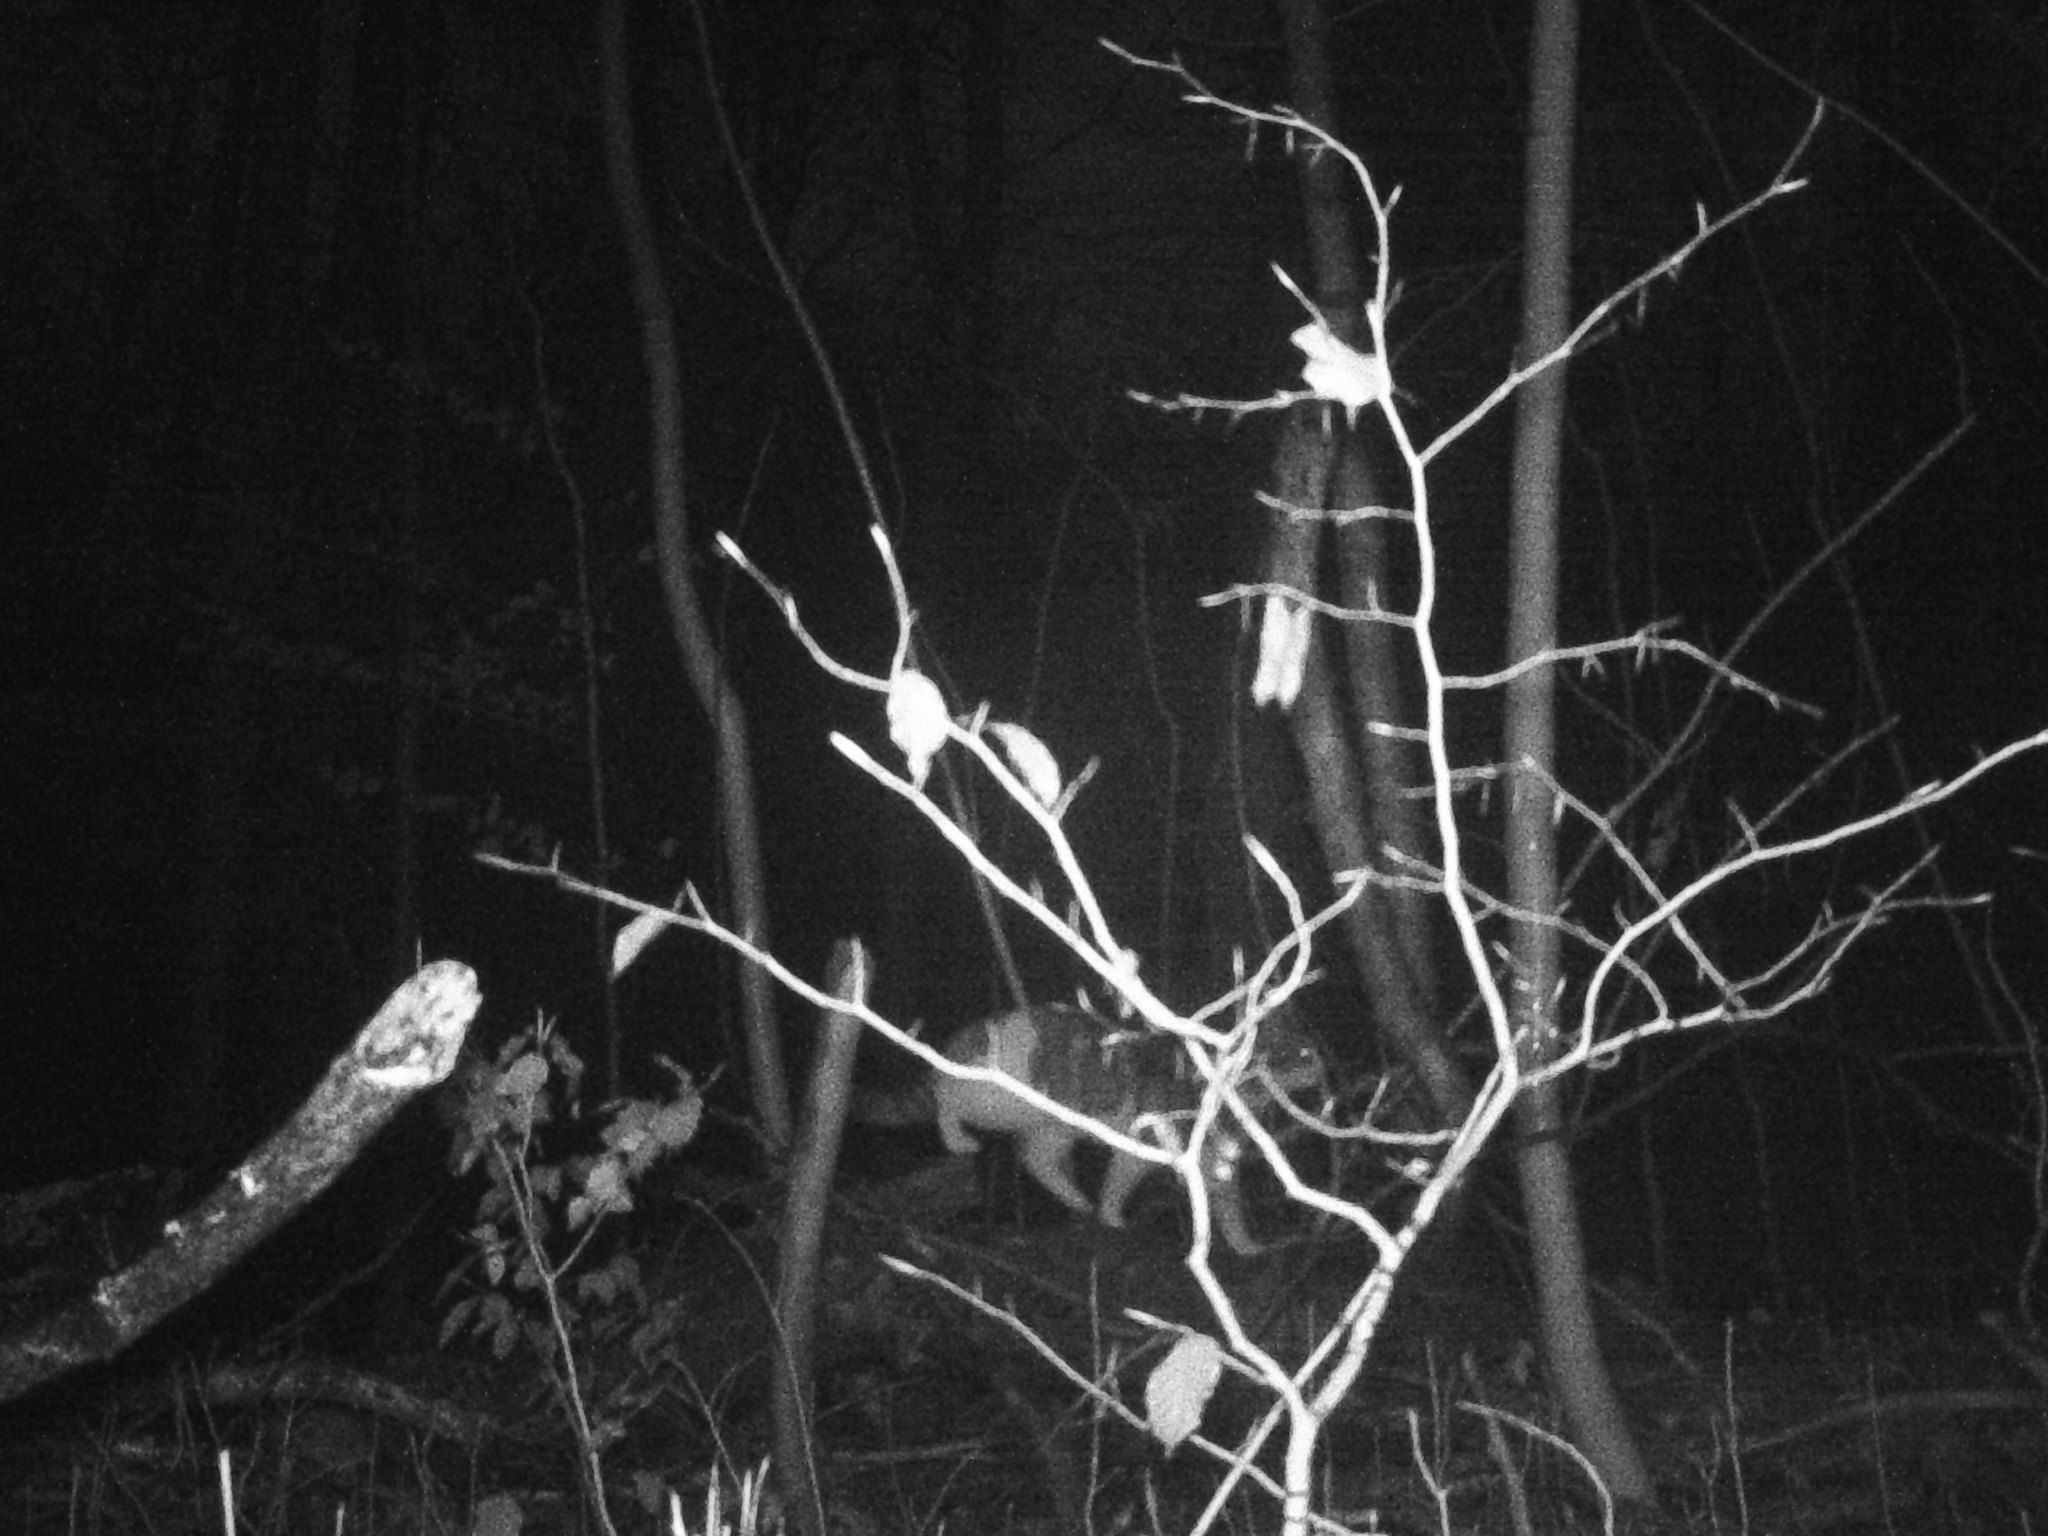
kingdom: Animalia
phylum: Chordata
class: Mammalia
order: Carnivora
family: Felidae
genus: Felis
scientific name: Felis catus
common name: Domestic cat
